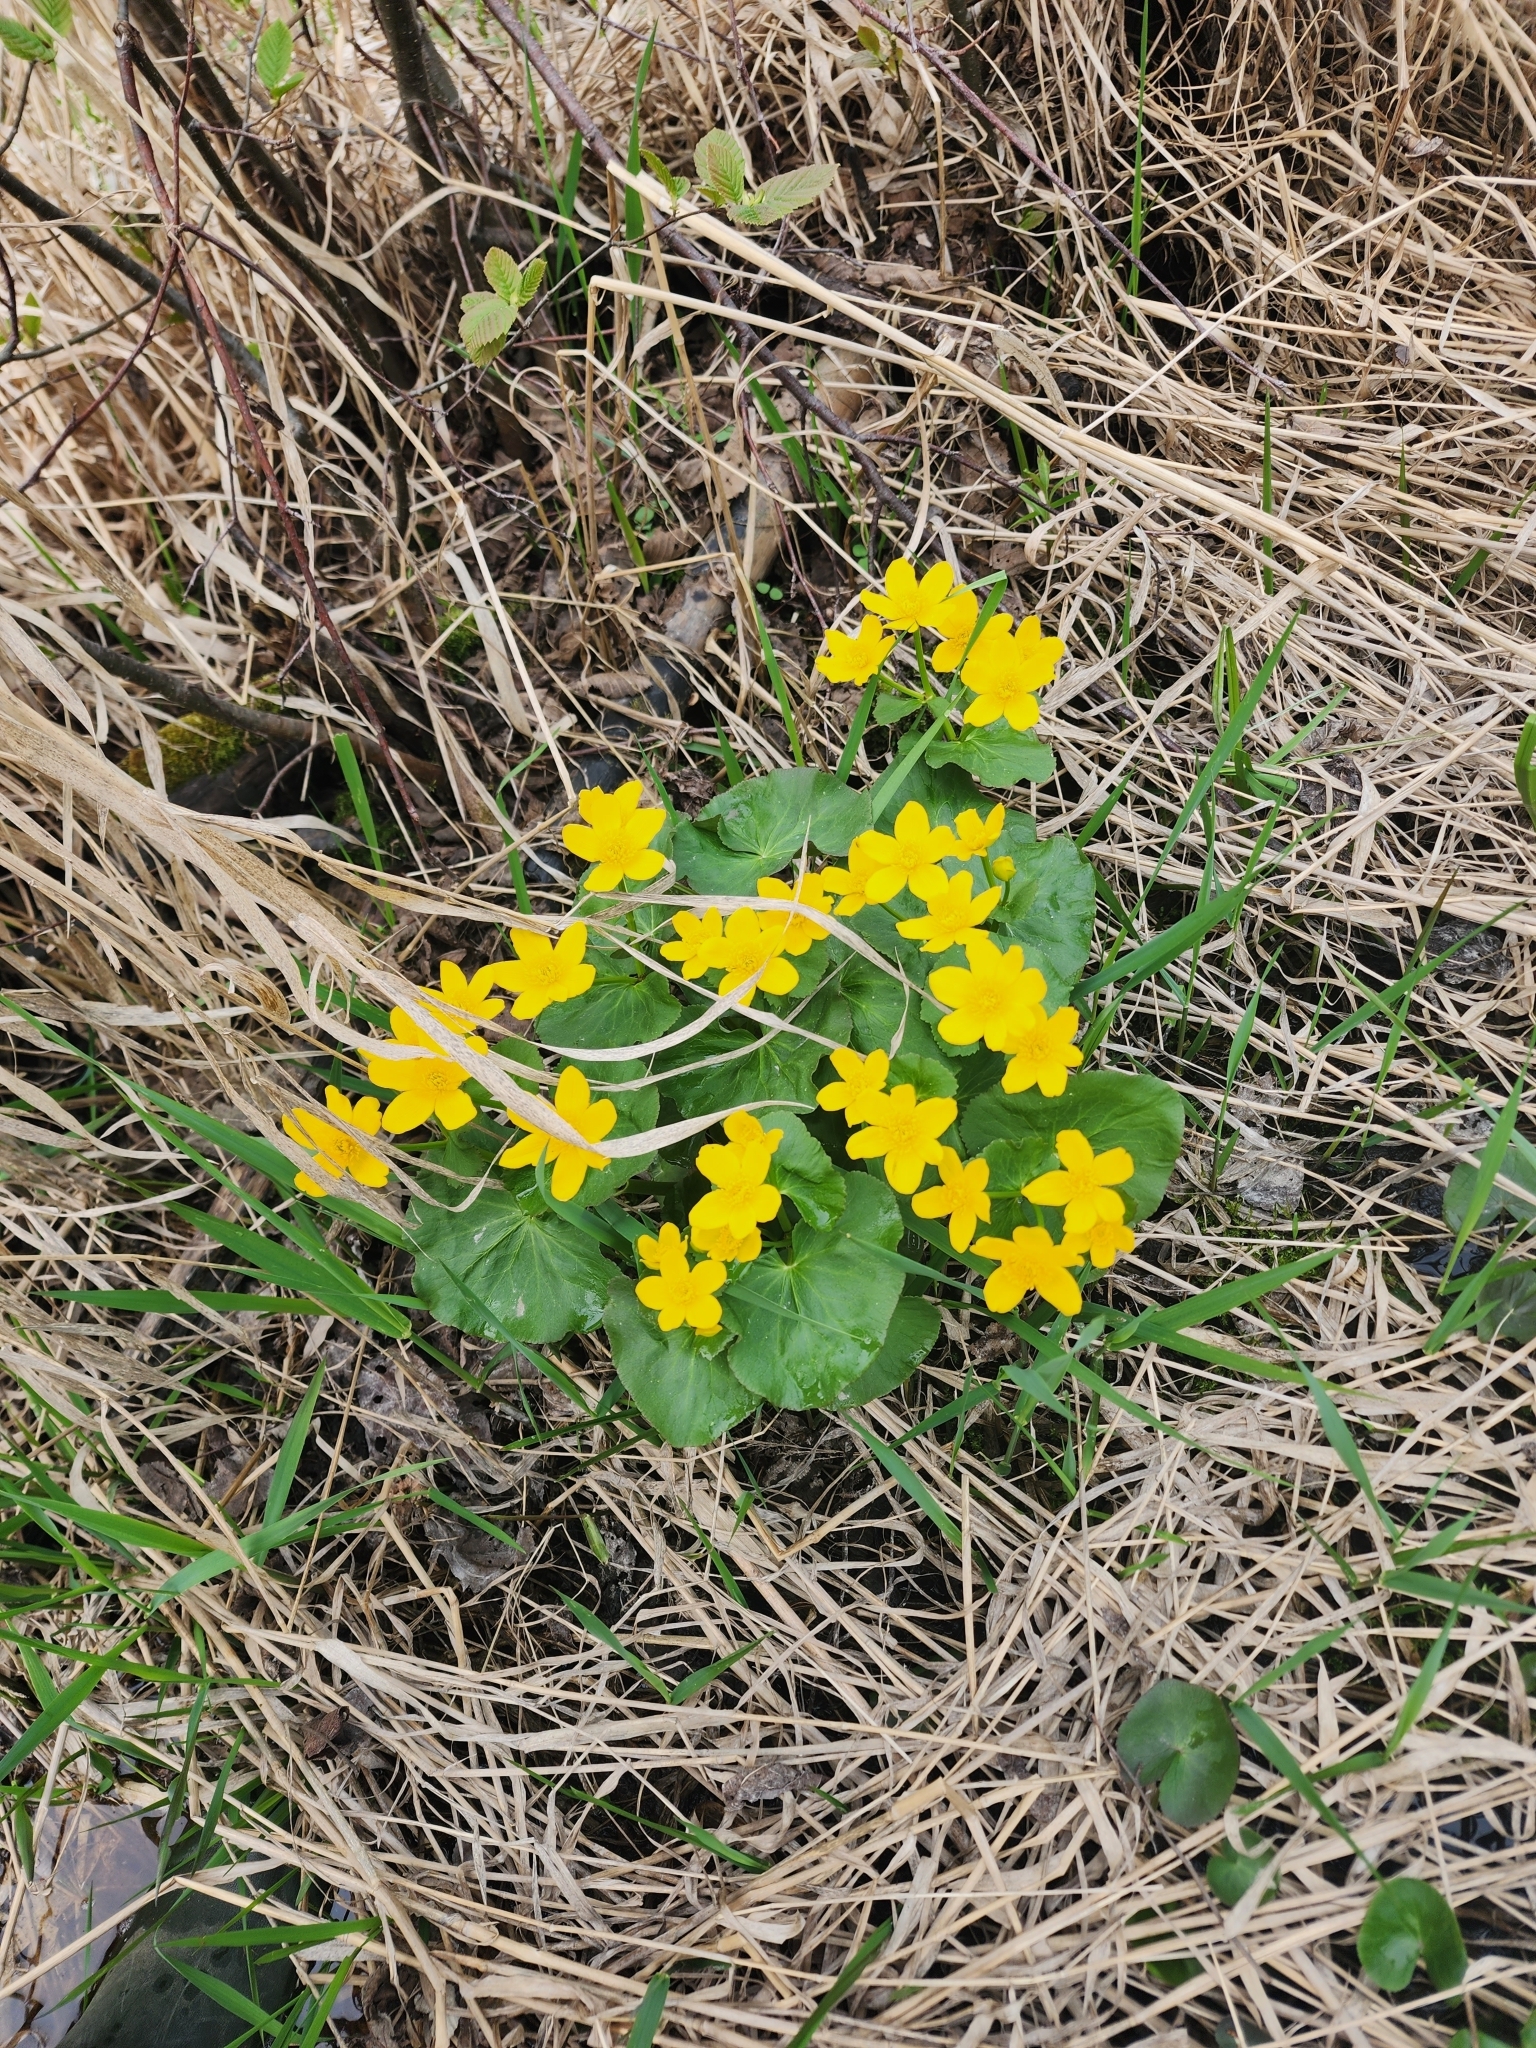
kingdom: Plantae
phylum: Tracheophyta
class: Magnoliopsida
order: Ranunculales
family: Ranunculaceae
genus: Caltha
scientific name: Caltha palustris
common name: Marsh marigold
